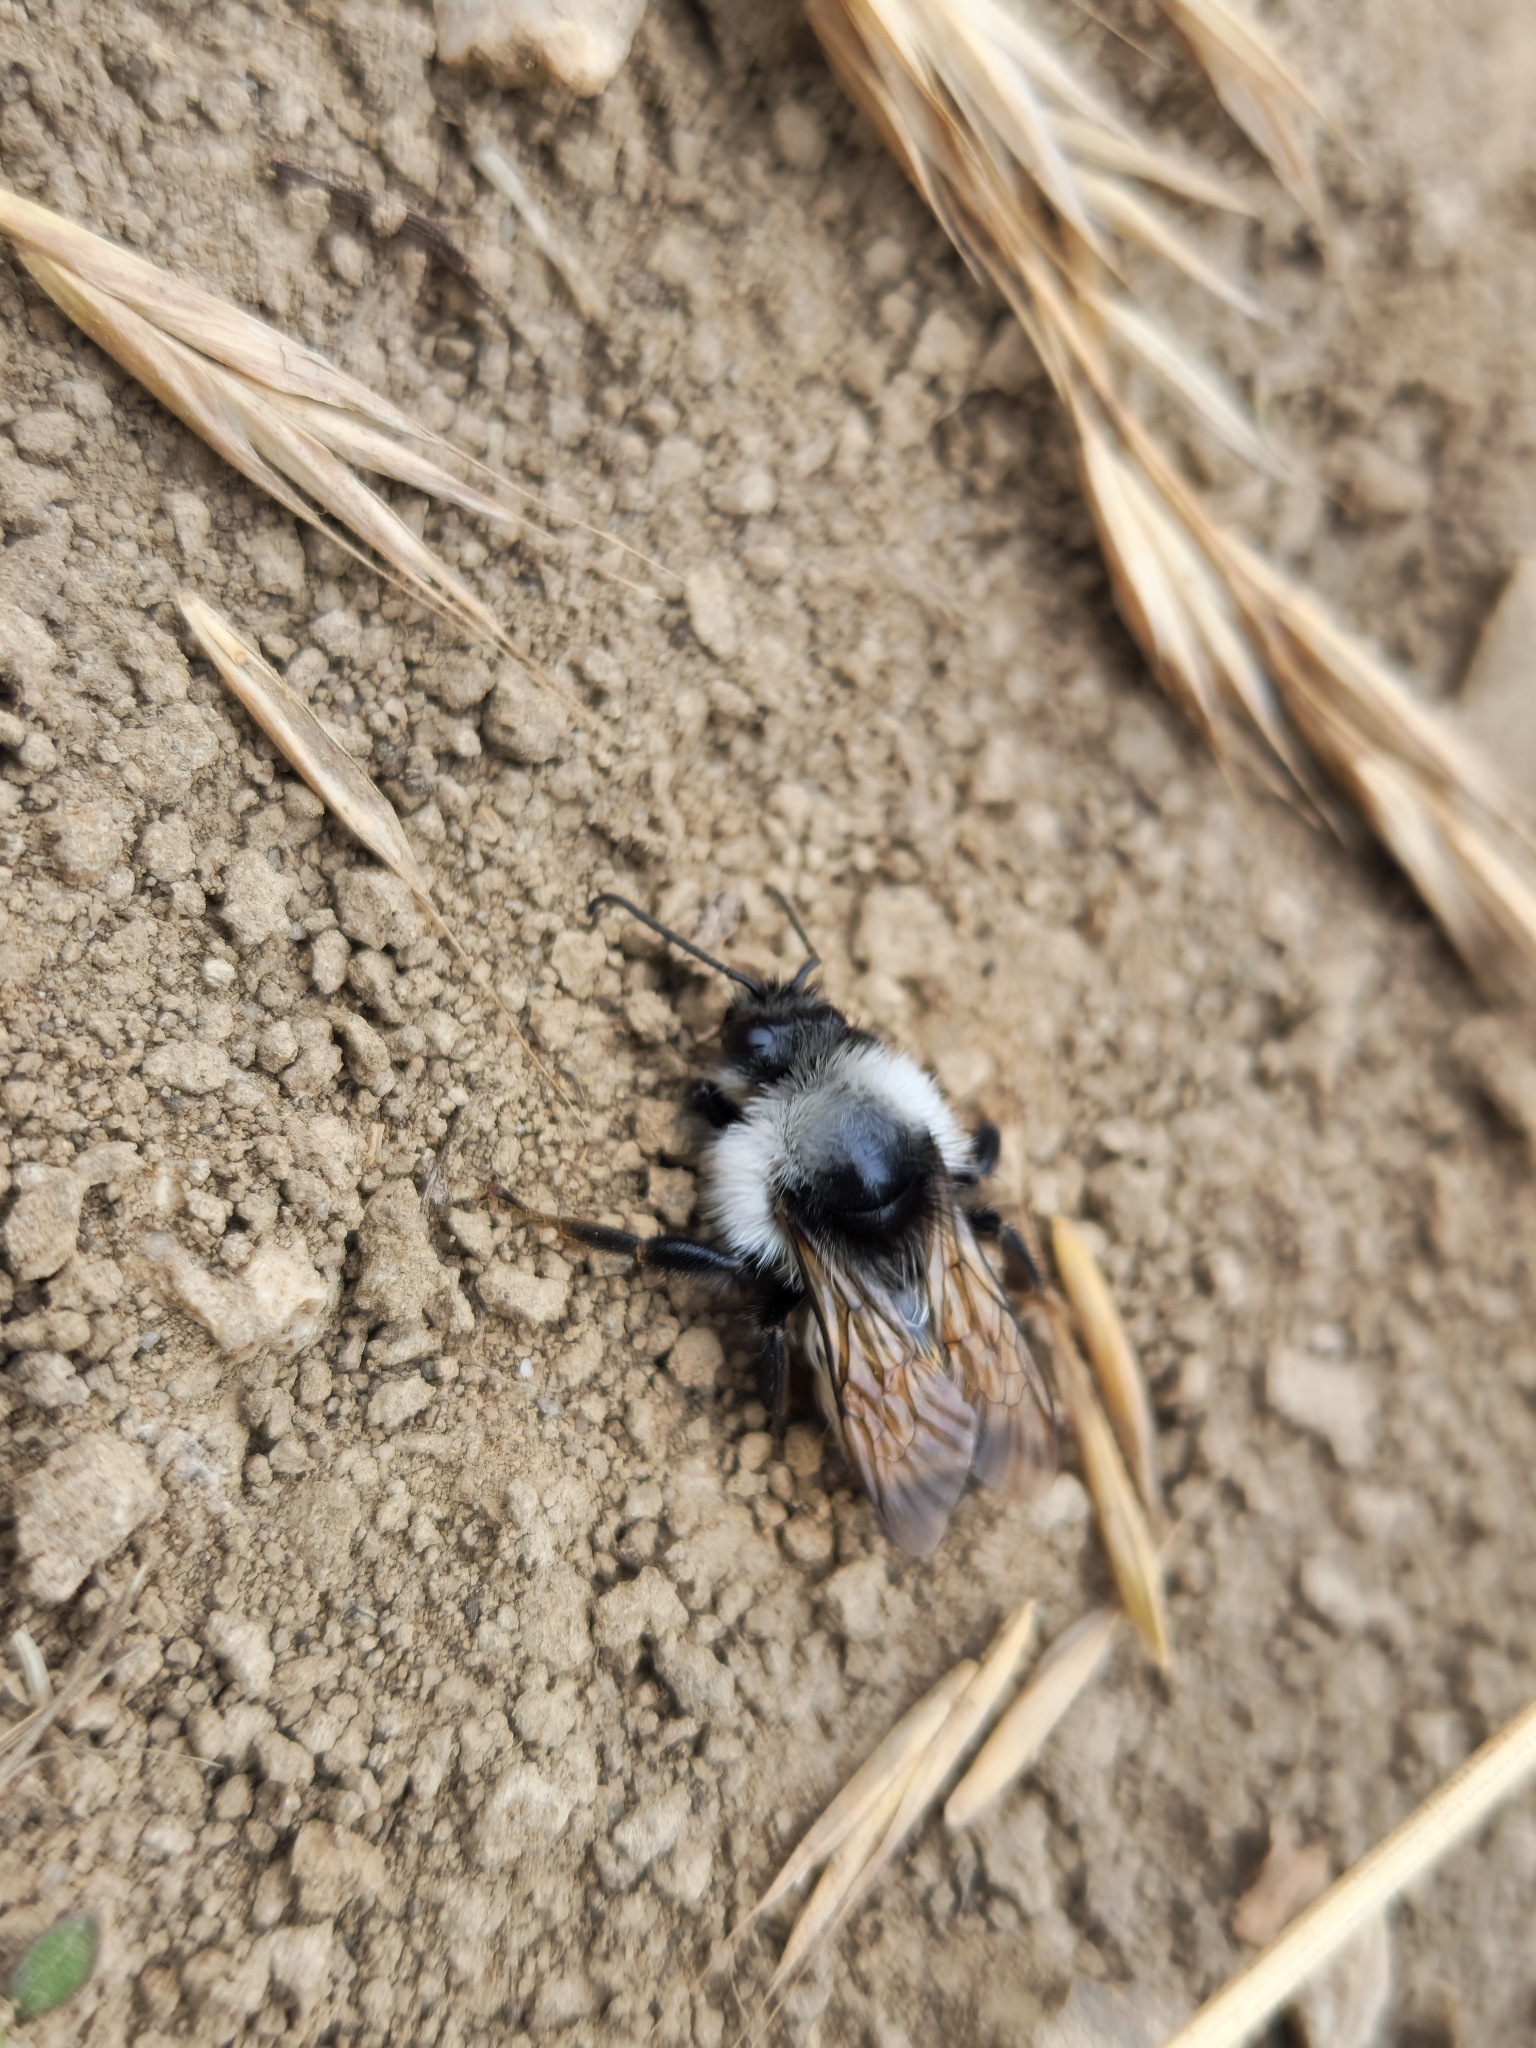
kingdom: Animalia
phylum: Arthropoda
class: Insecta
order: Hymenoptera
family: Apidae
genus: Bombus
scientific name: Bombus persicus
